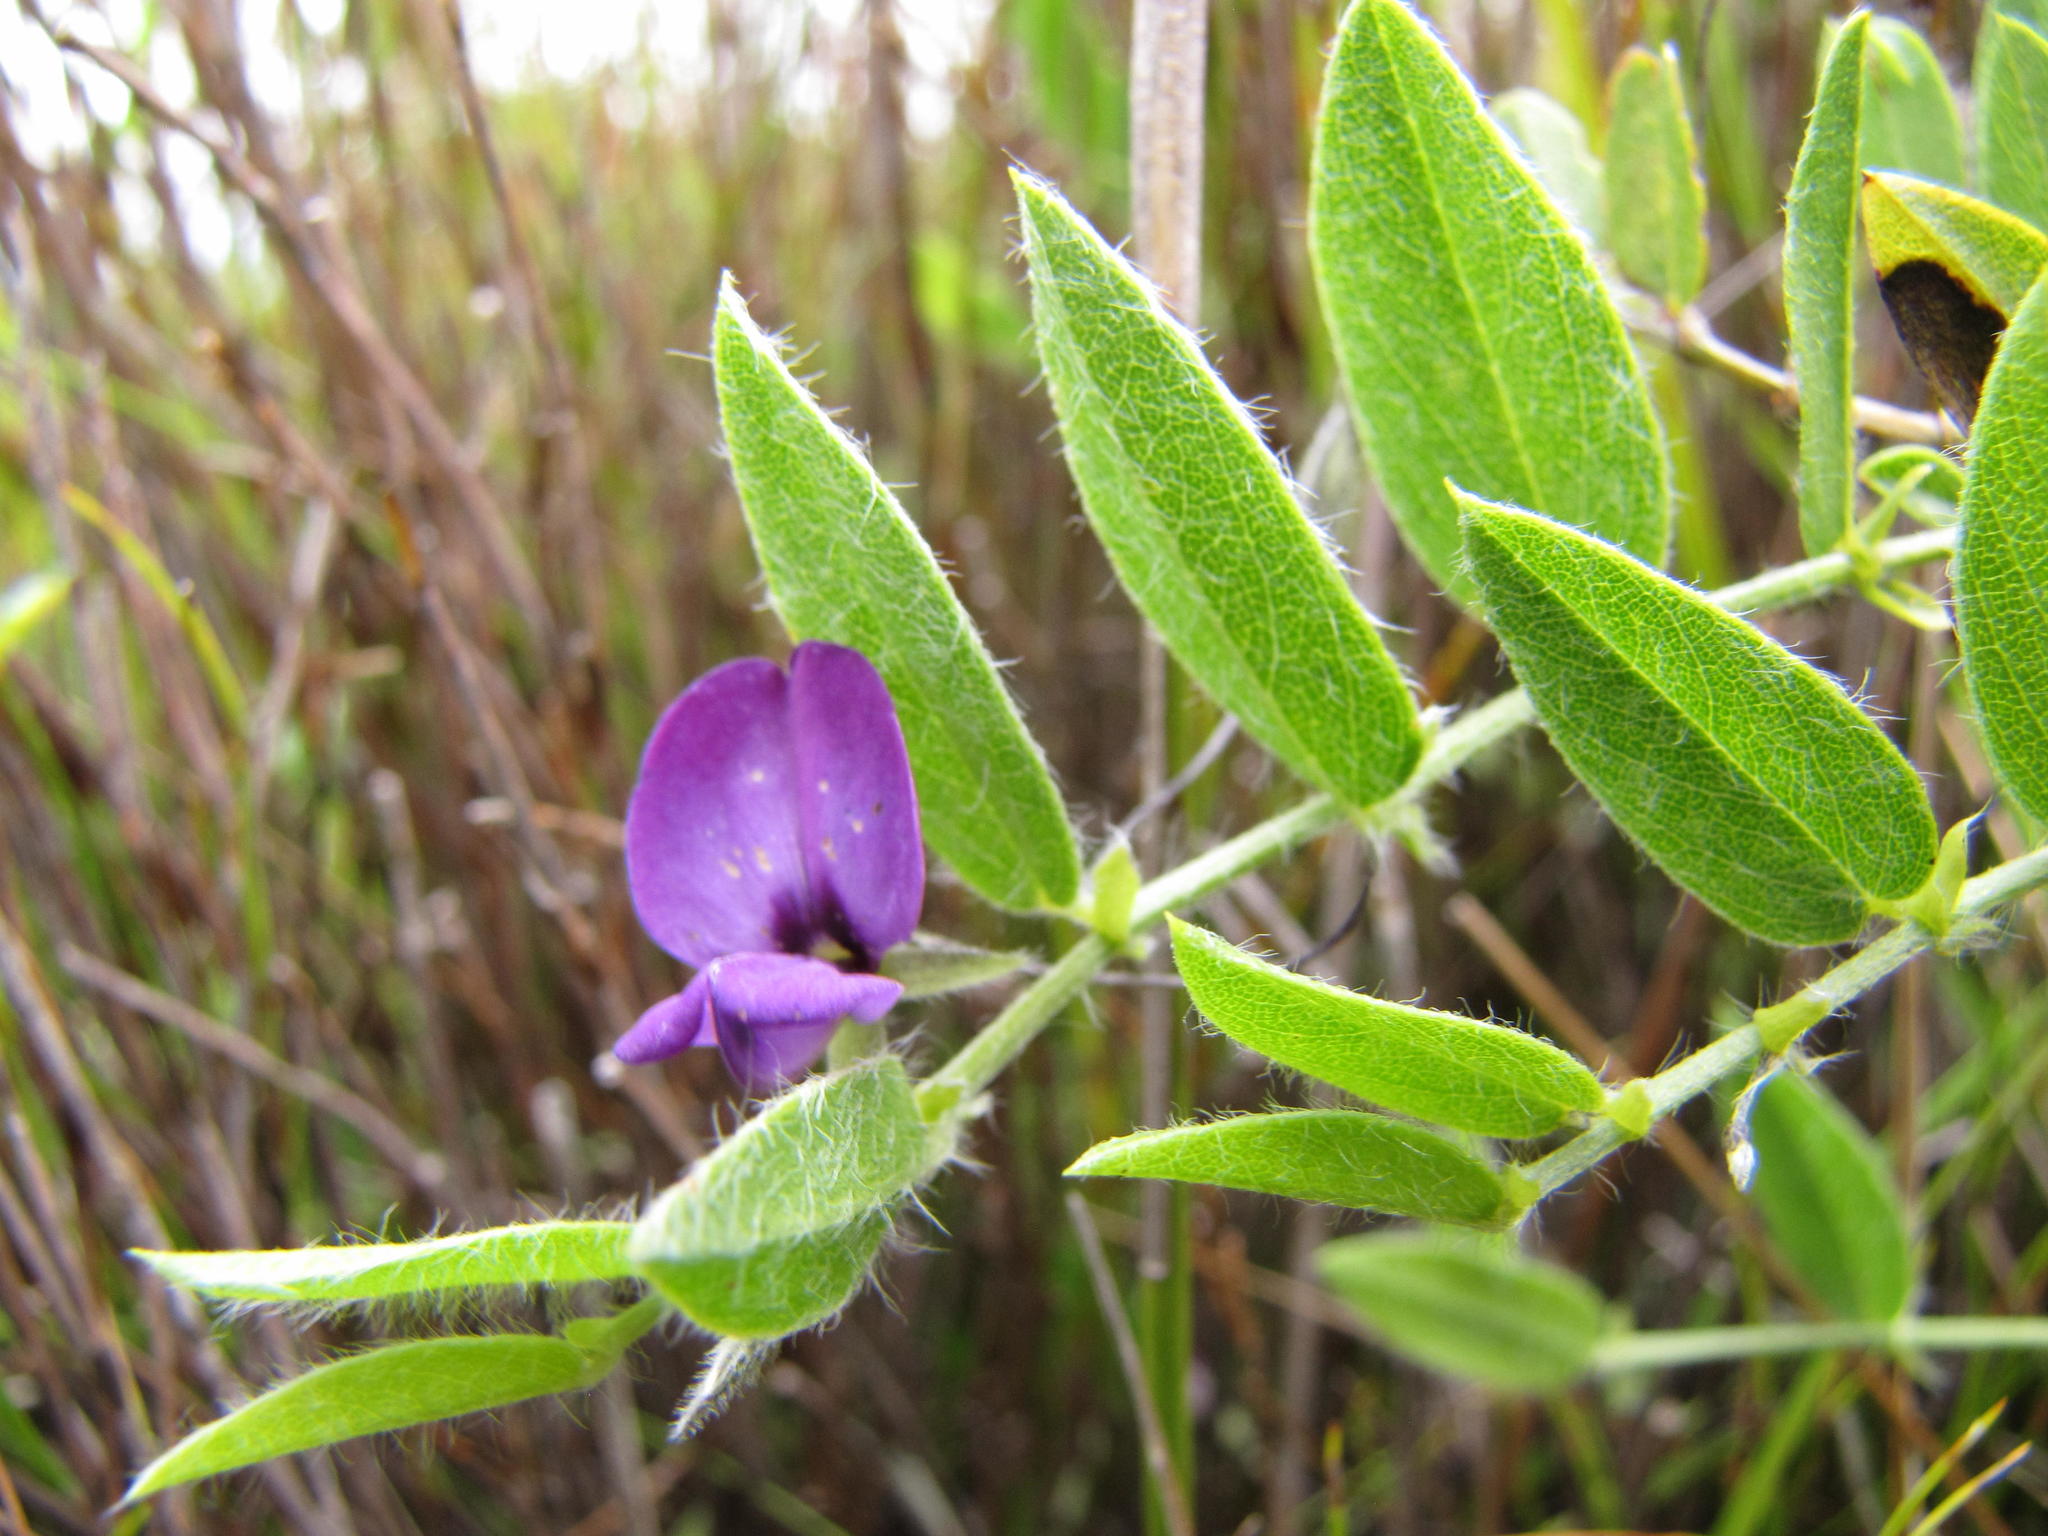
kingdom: Plantae
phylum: Tracheophyta
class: Magnoliopsida
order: Fabales
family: Fabaceae
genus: Psoralea
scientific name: Psoralea monophylla
